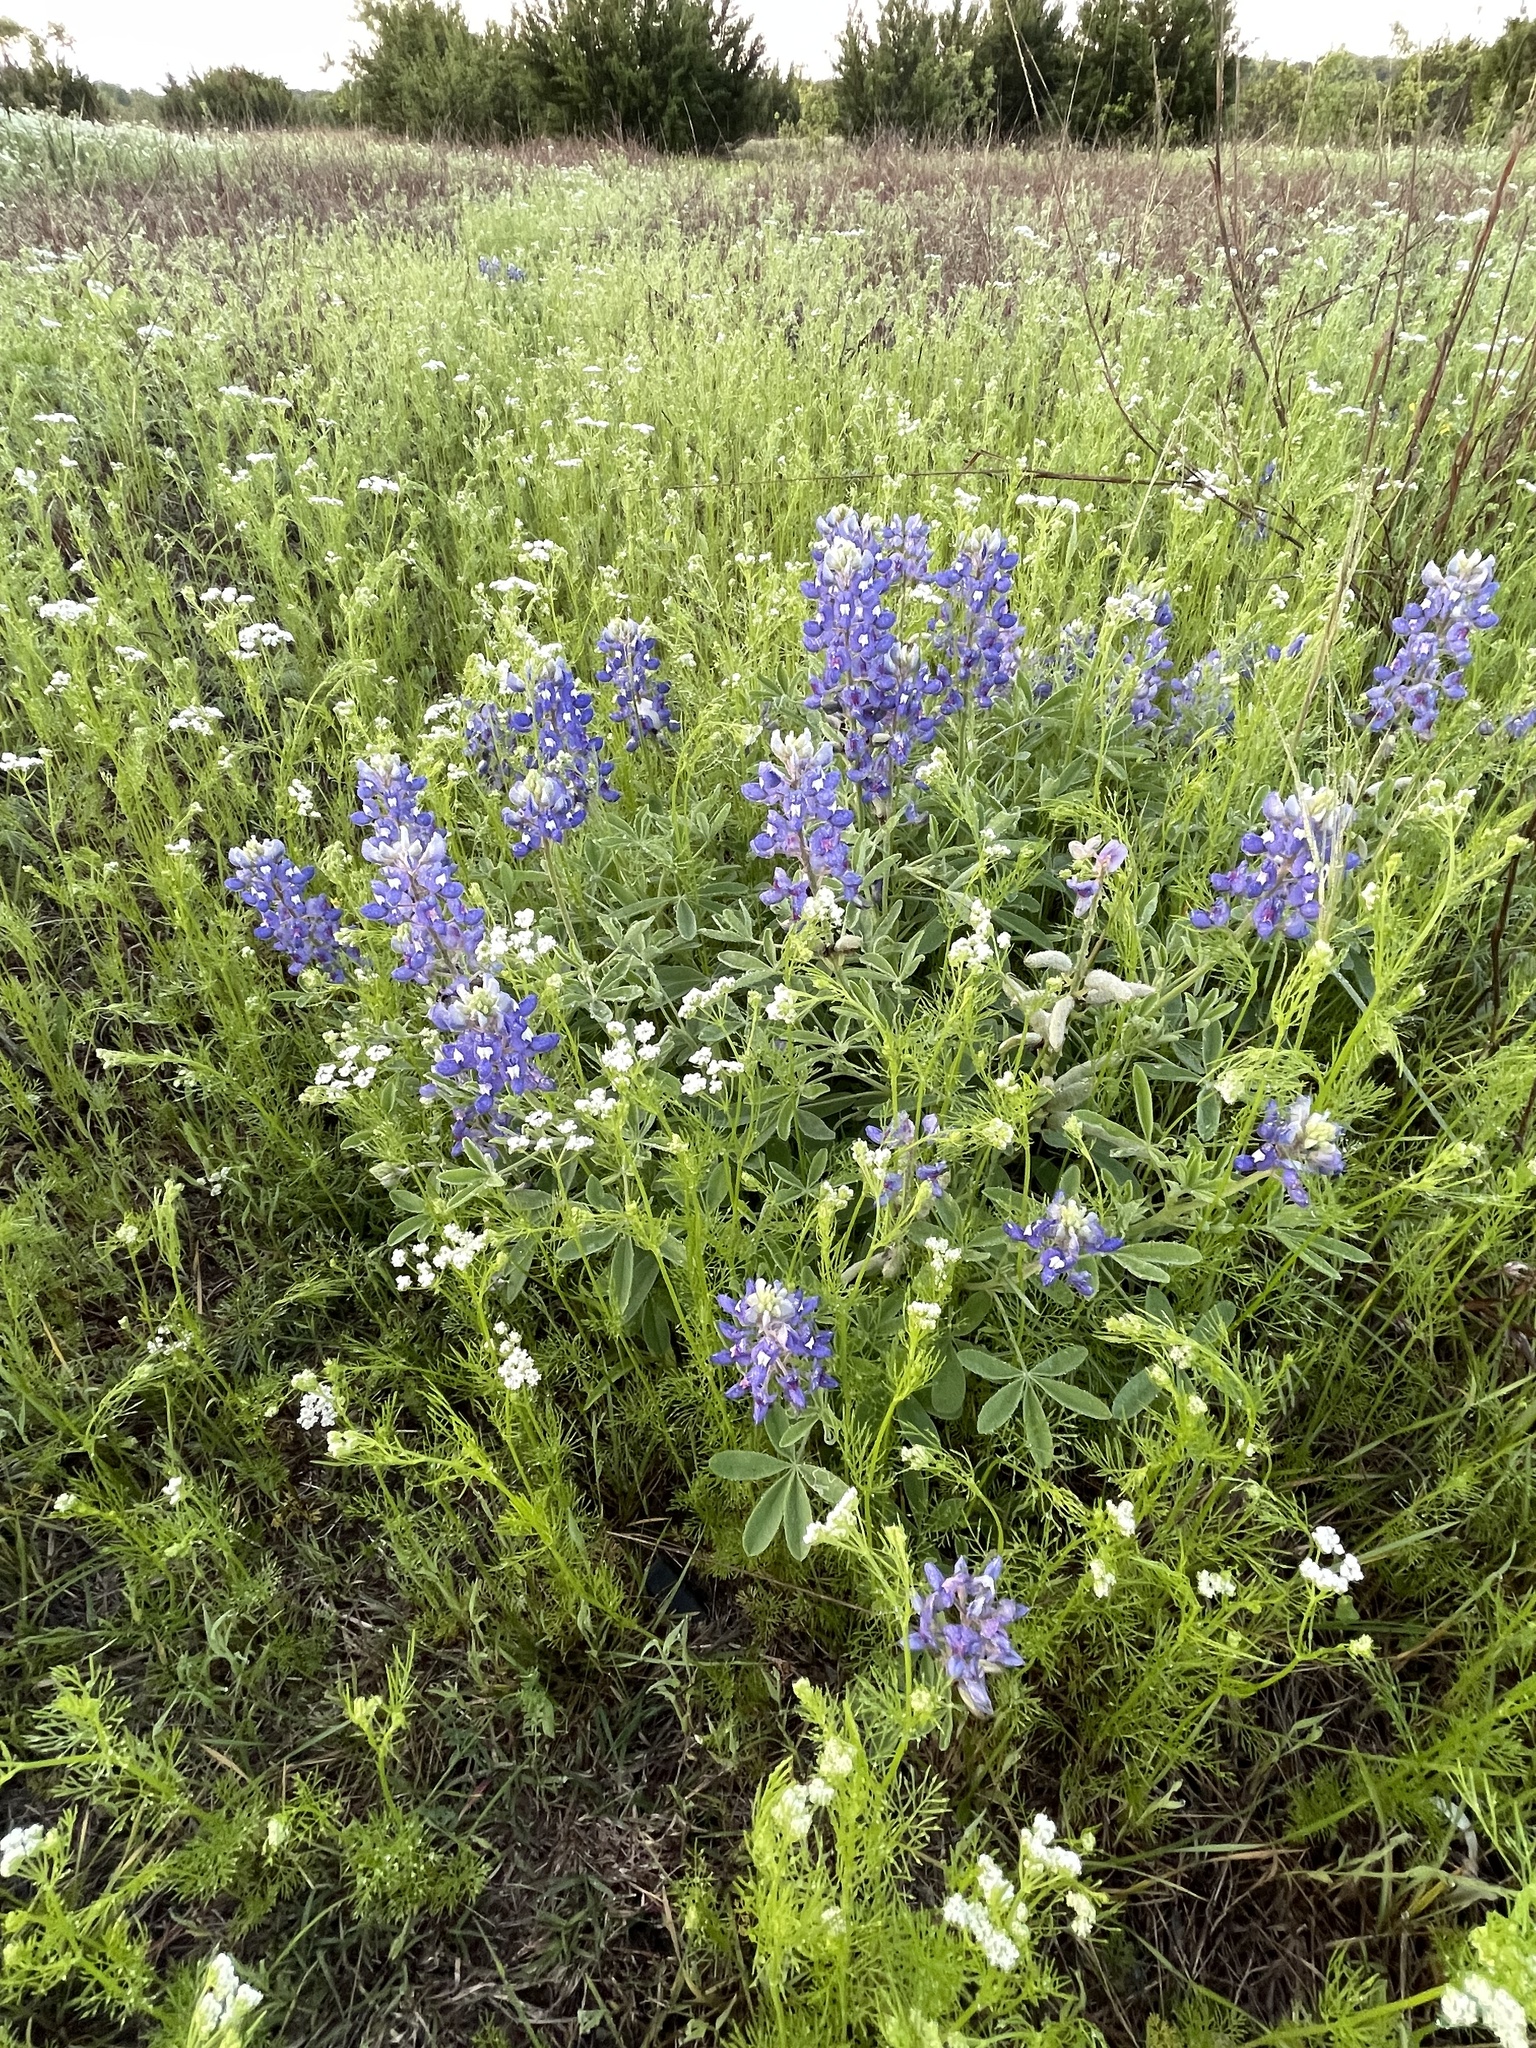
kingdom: Plantae
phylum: Tracheophyta
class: Magnoliopsida
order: Fabales
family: Fabaceae
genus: Lupinus
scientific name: Lupinus texensis
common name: Texas bluebonnet
